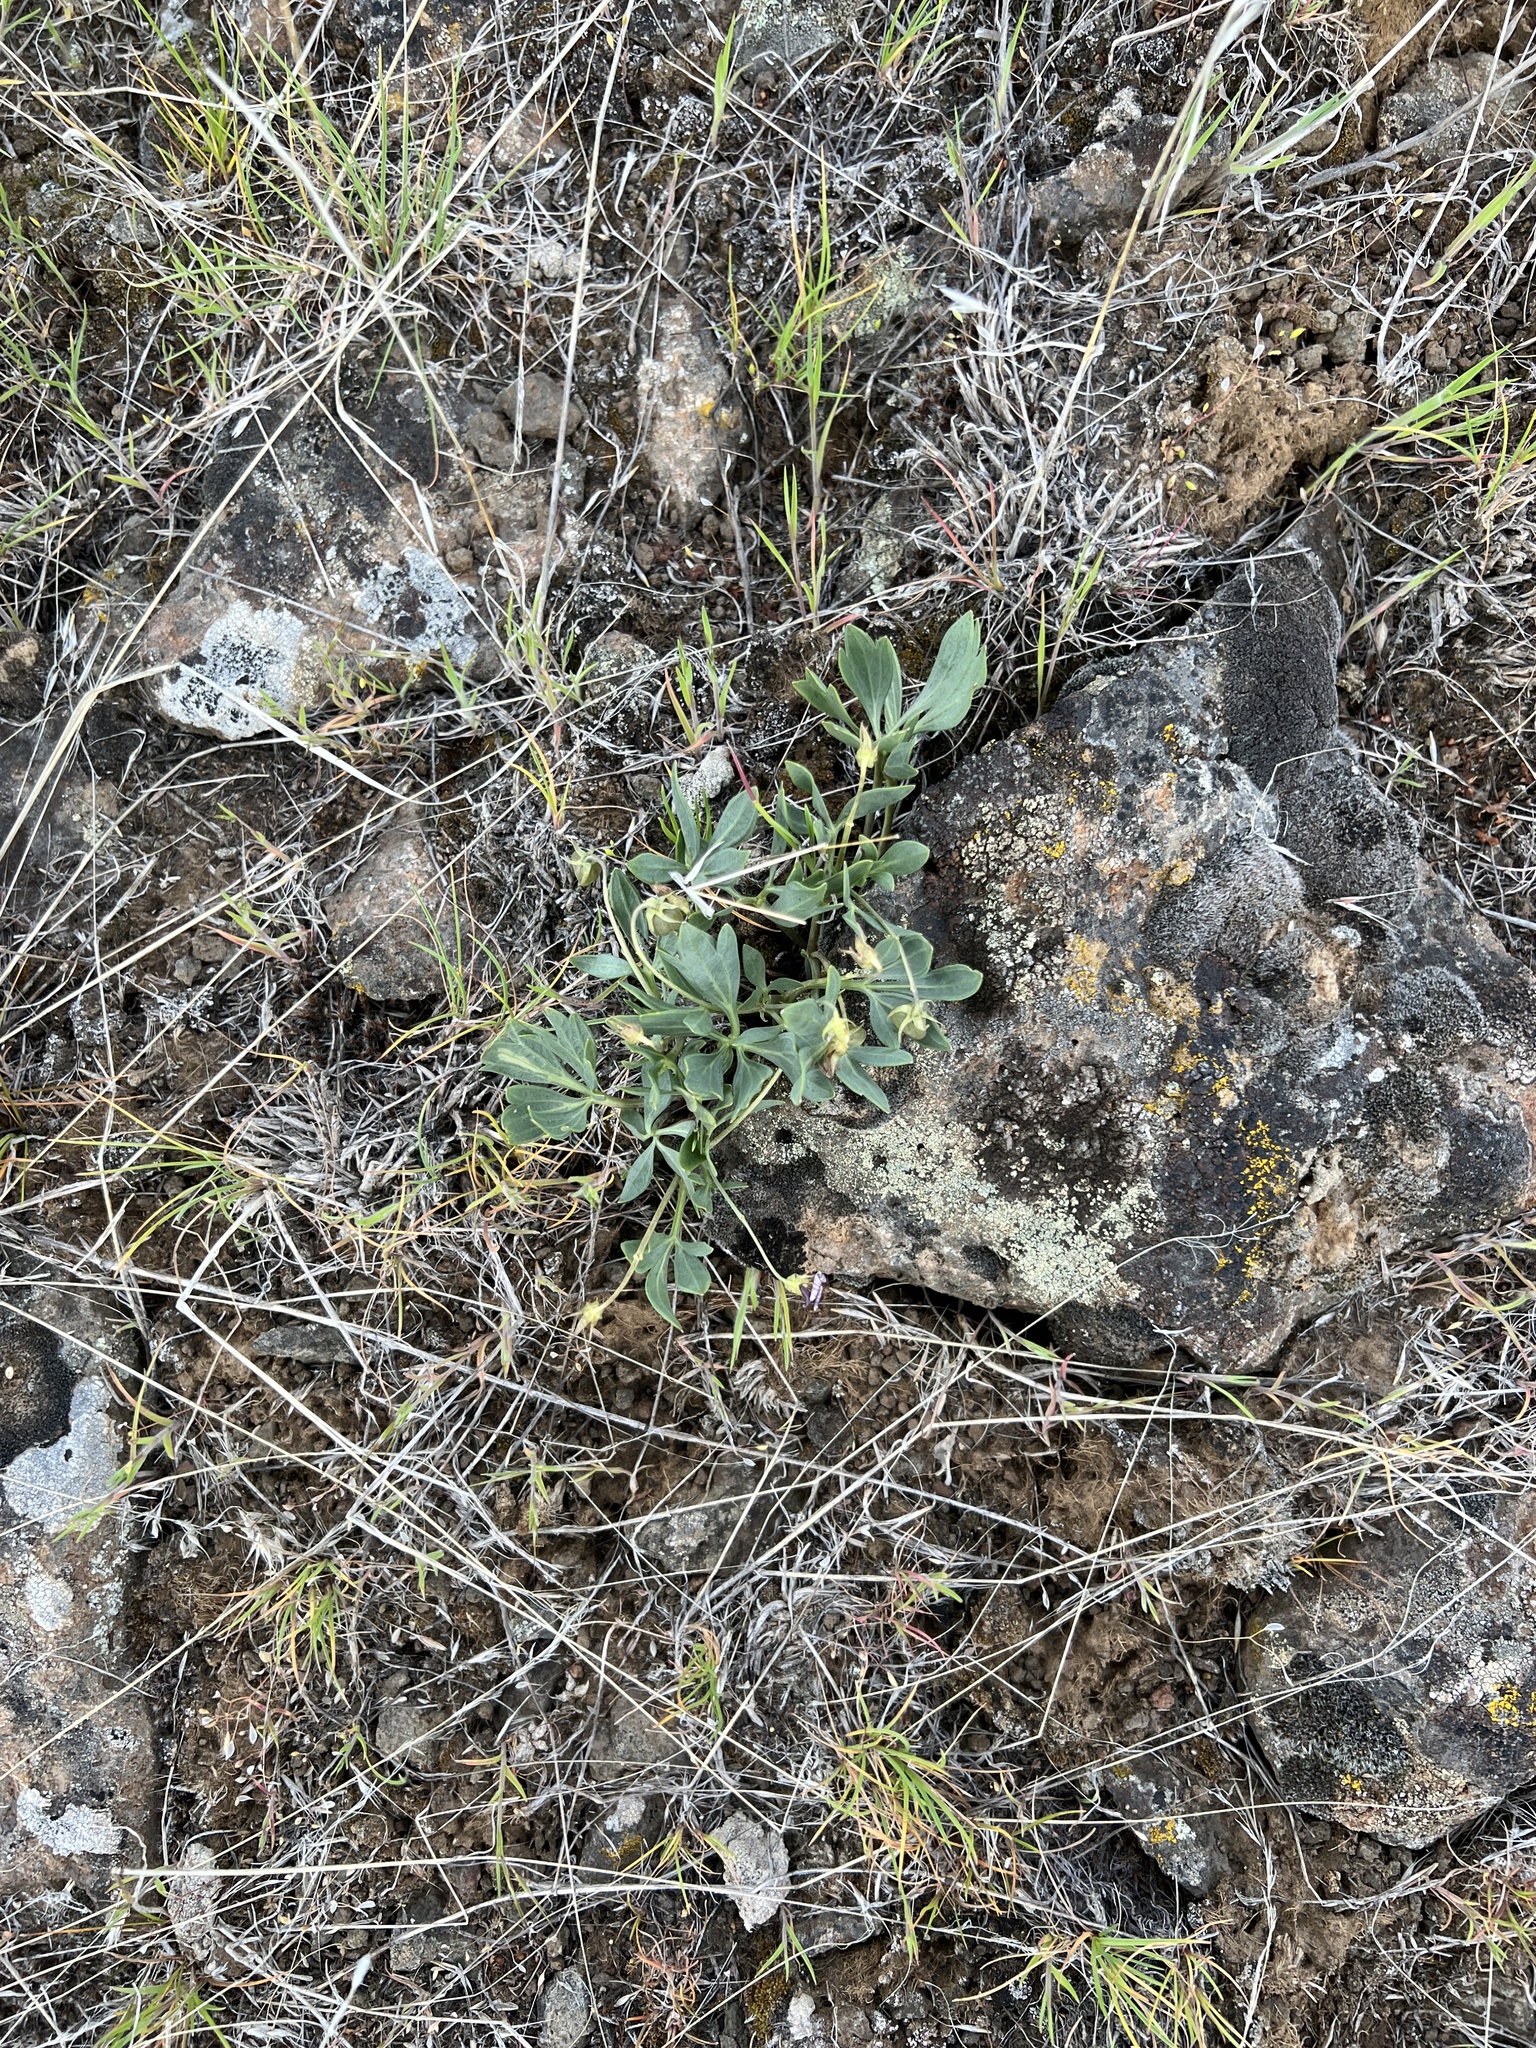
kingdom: Plantae
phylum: Tracheophyta
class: Magnoliopsida
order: Malpighiales
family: Violaceae
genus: Viola
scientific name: Viola trinervata
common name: Sagebrush violet
